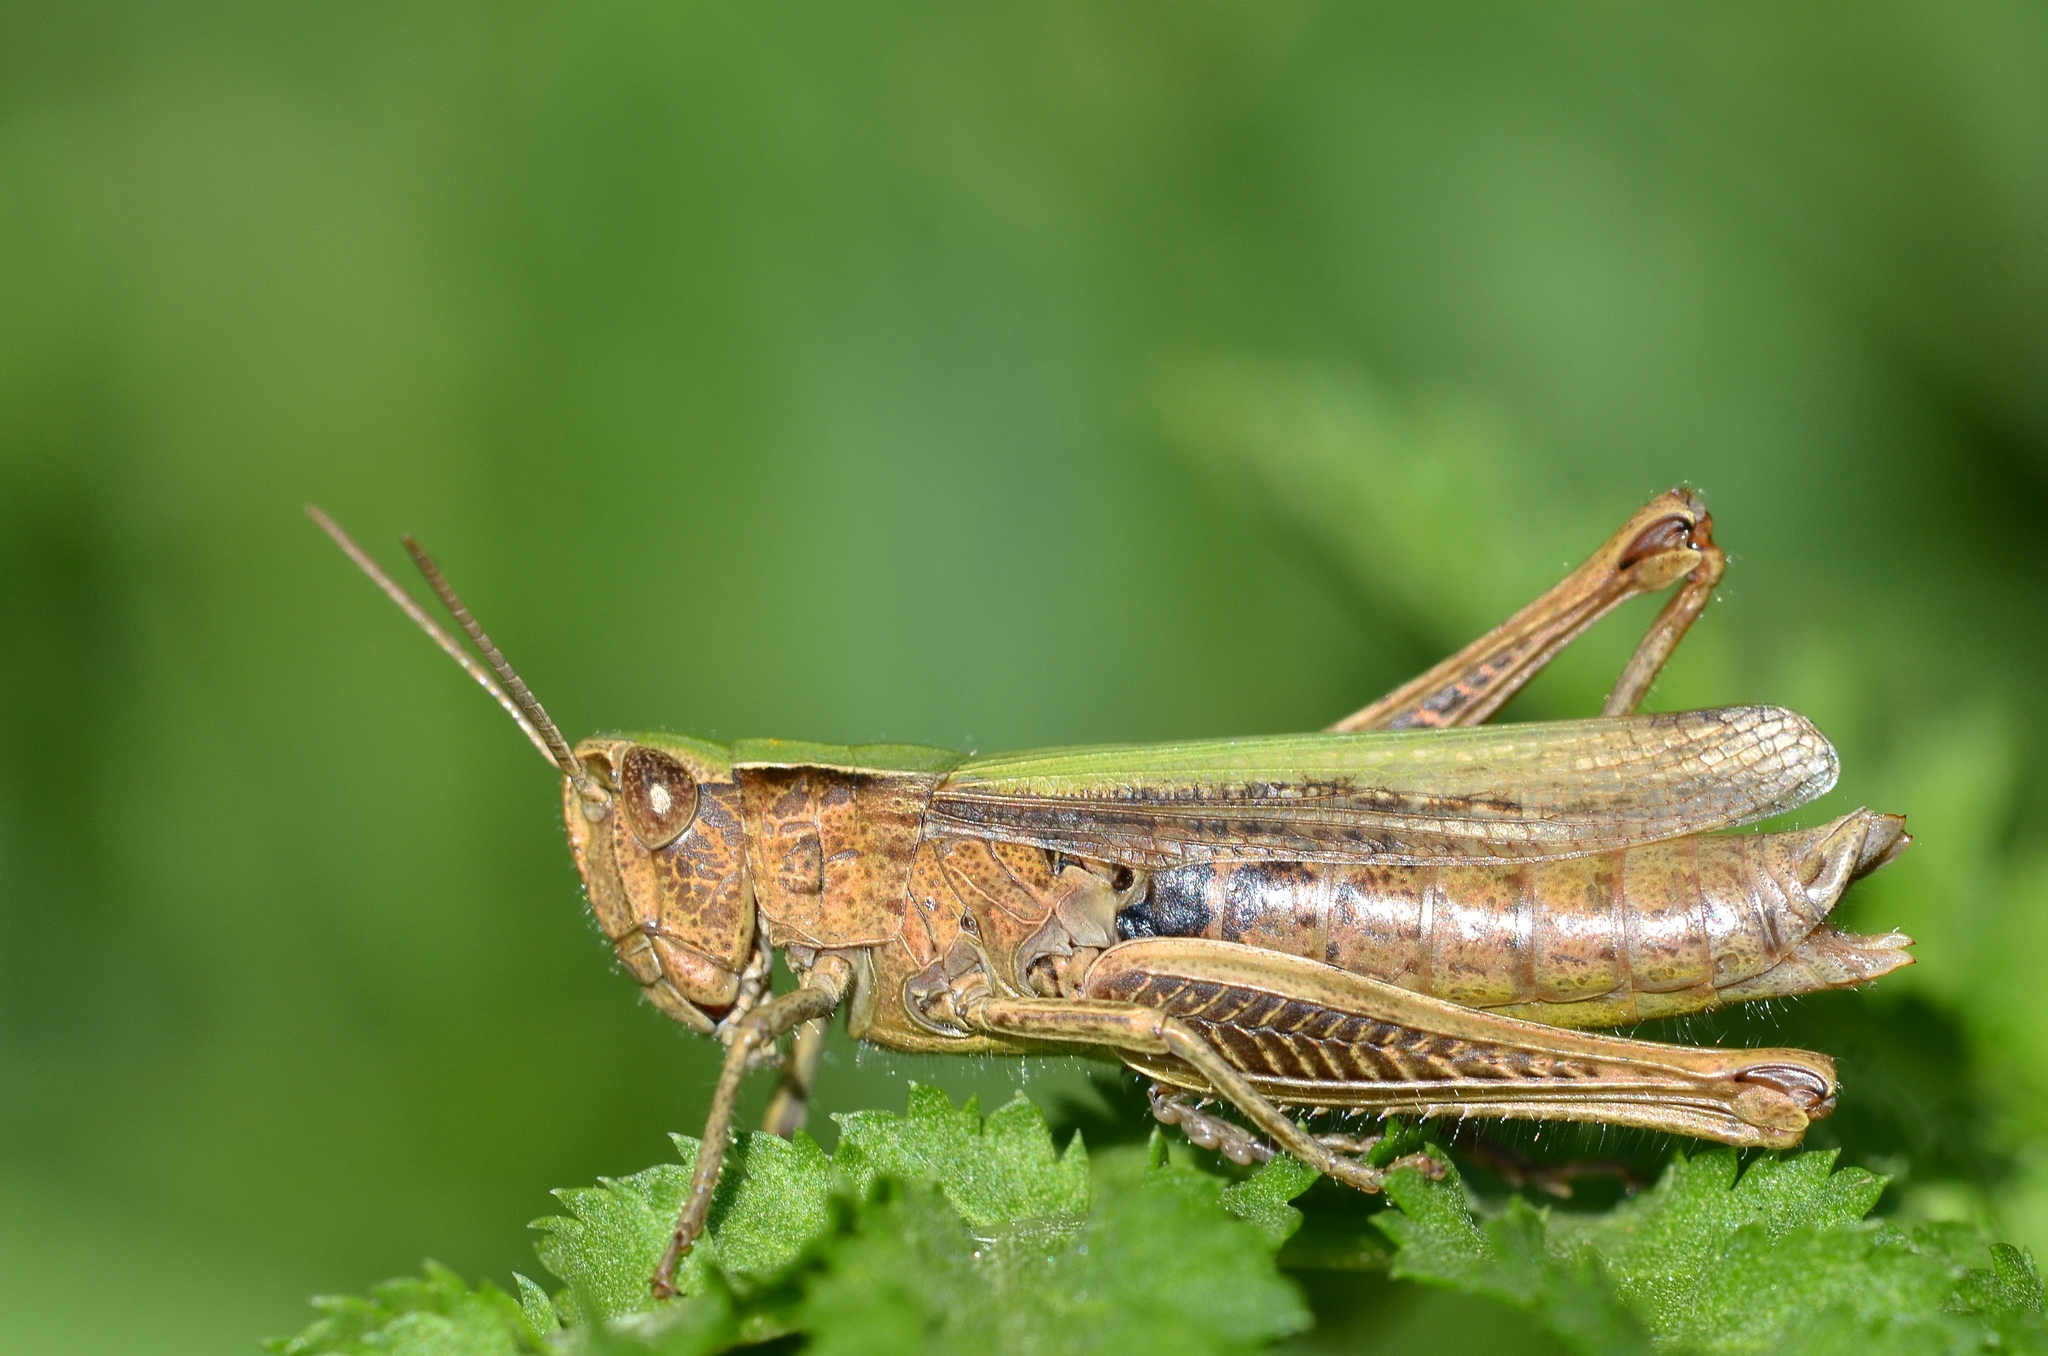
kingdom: Animalia
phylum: Arthropoda
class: Insecta
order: Orthoptera
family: Acrididae
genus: Chorthippus
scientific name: Chorthippus dorsatus
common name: Steppe grasshopper
